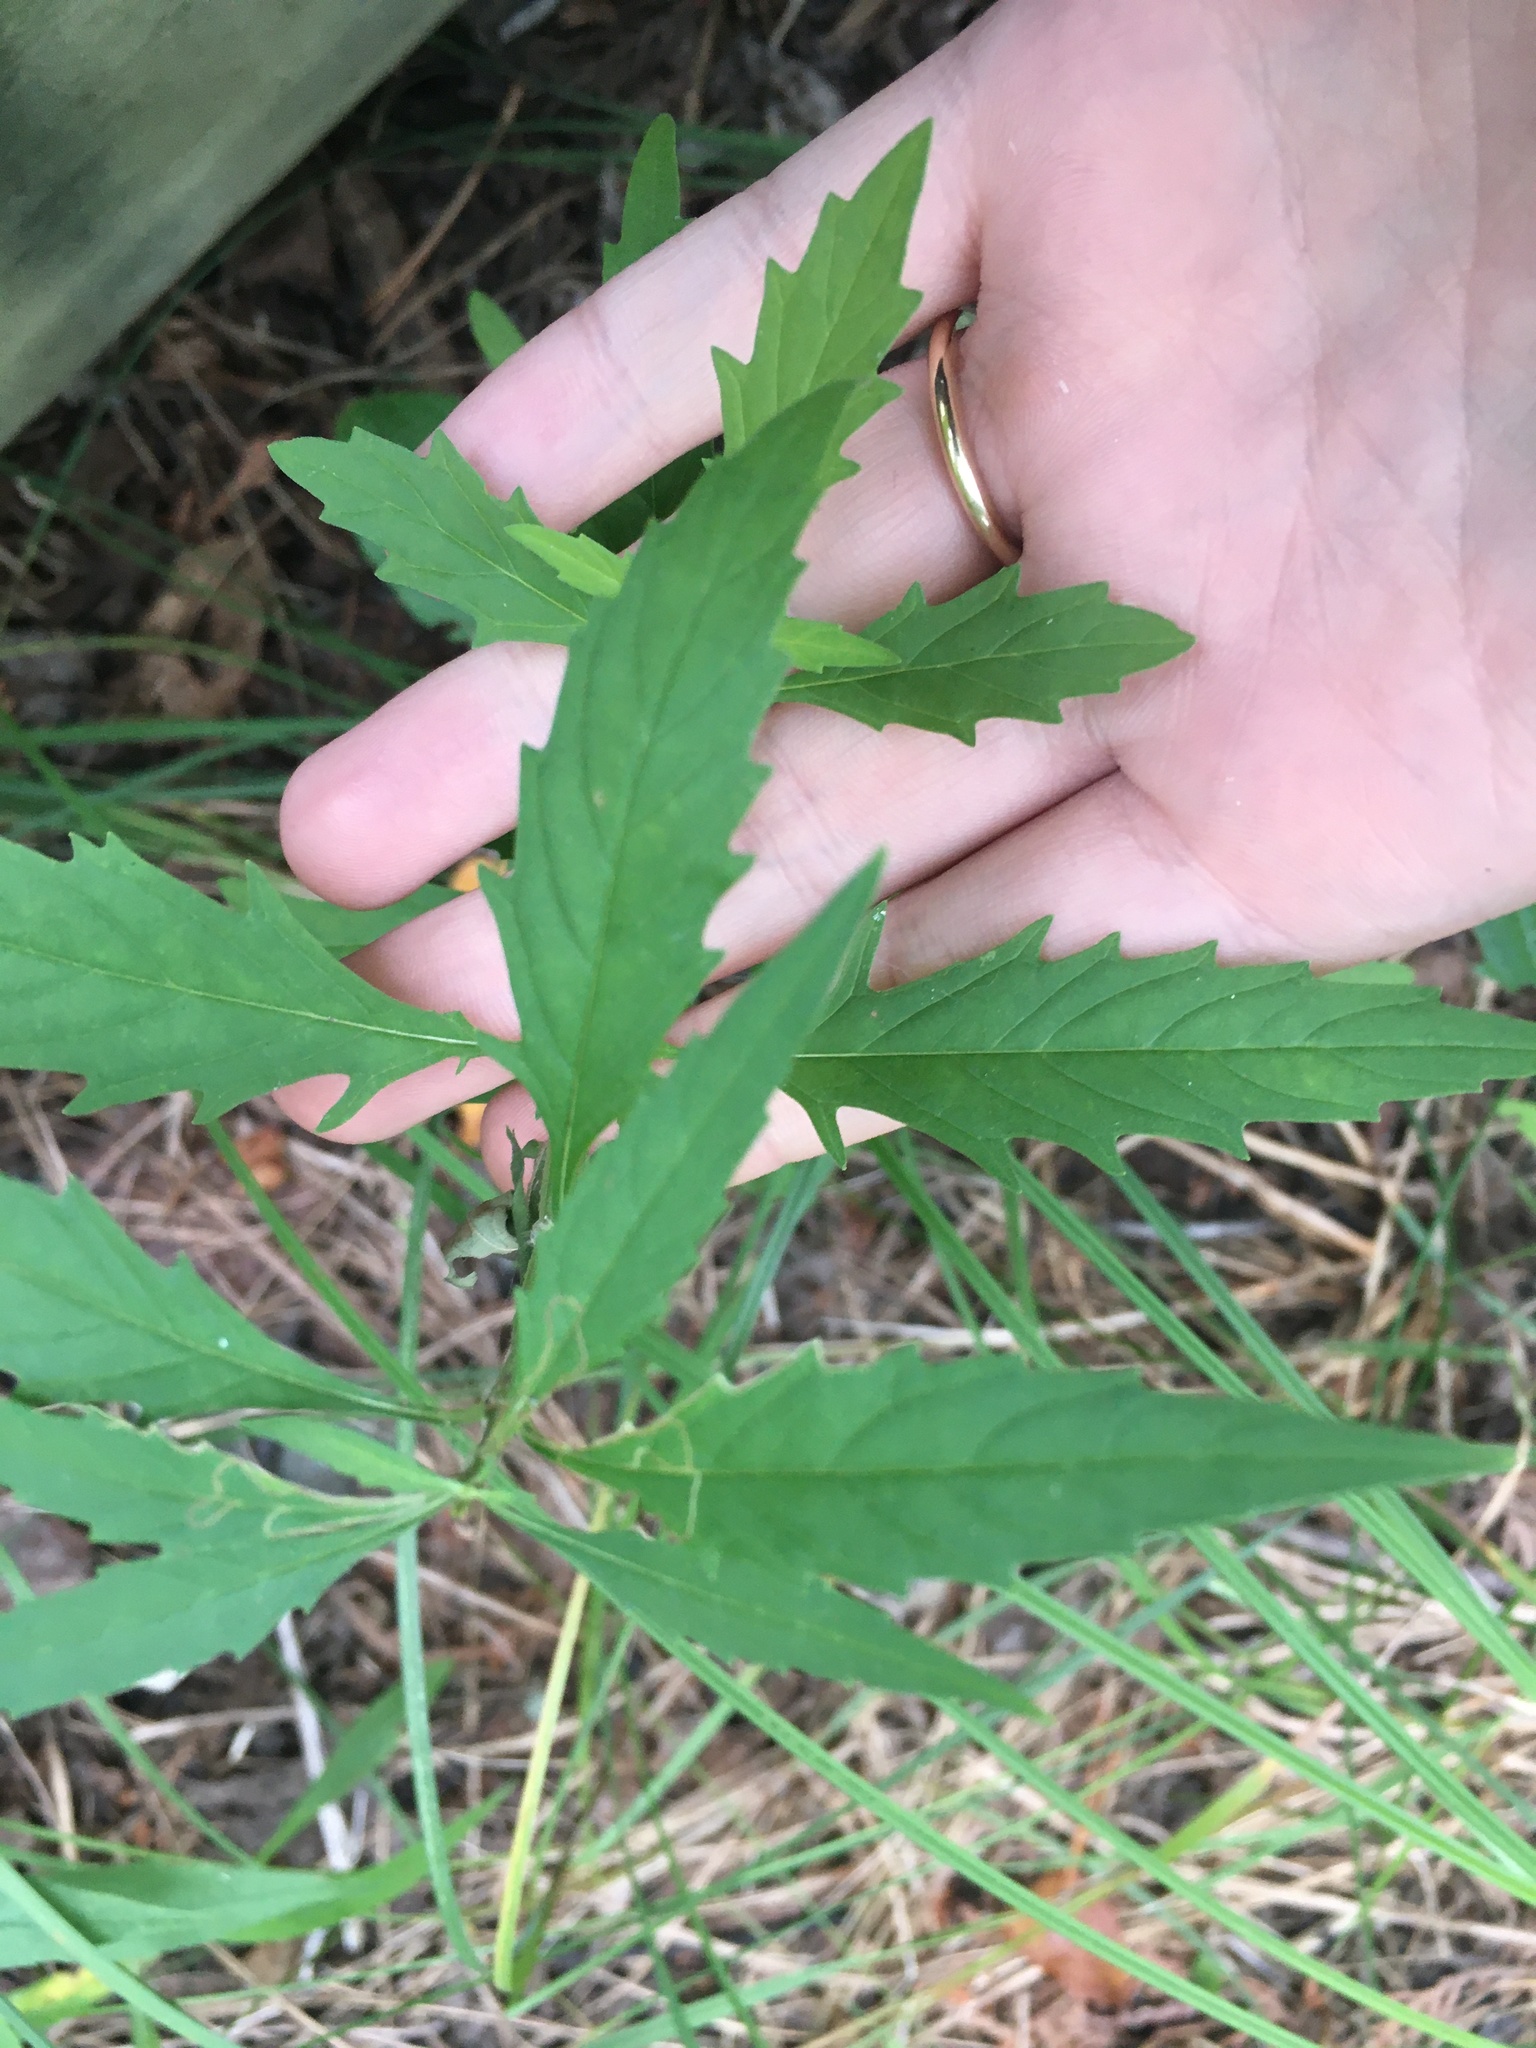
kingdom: Plantae
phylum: Tracheophyta
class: Magnoliopsida
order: Lamiales
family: Lamiaceae
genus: Lycopus
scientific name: Lycopus americanus
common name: American bugleweed
